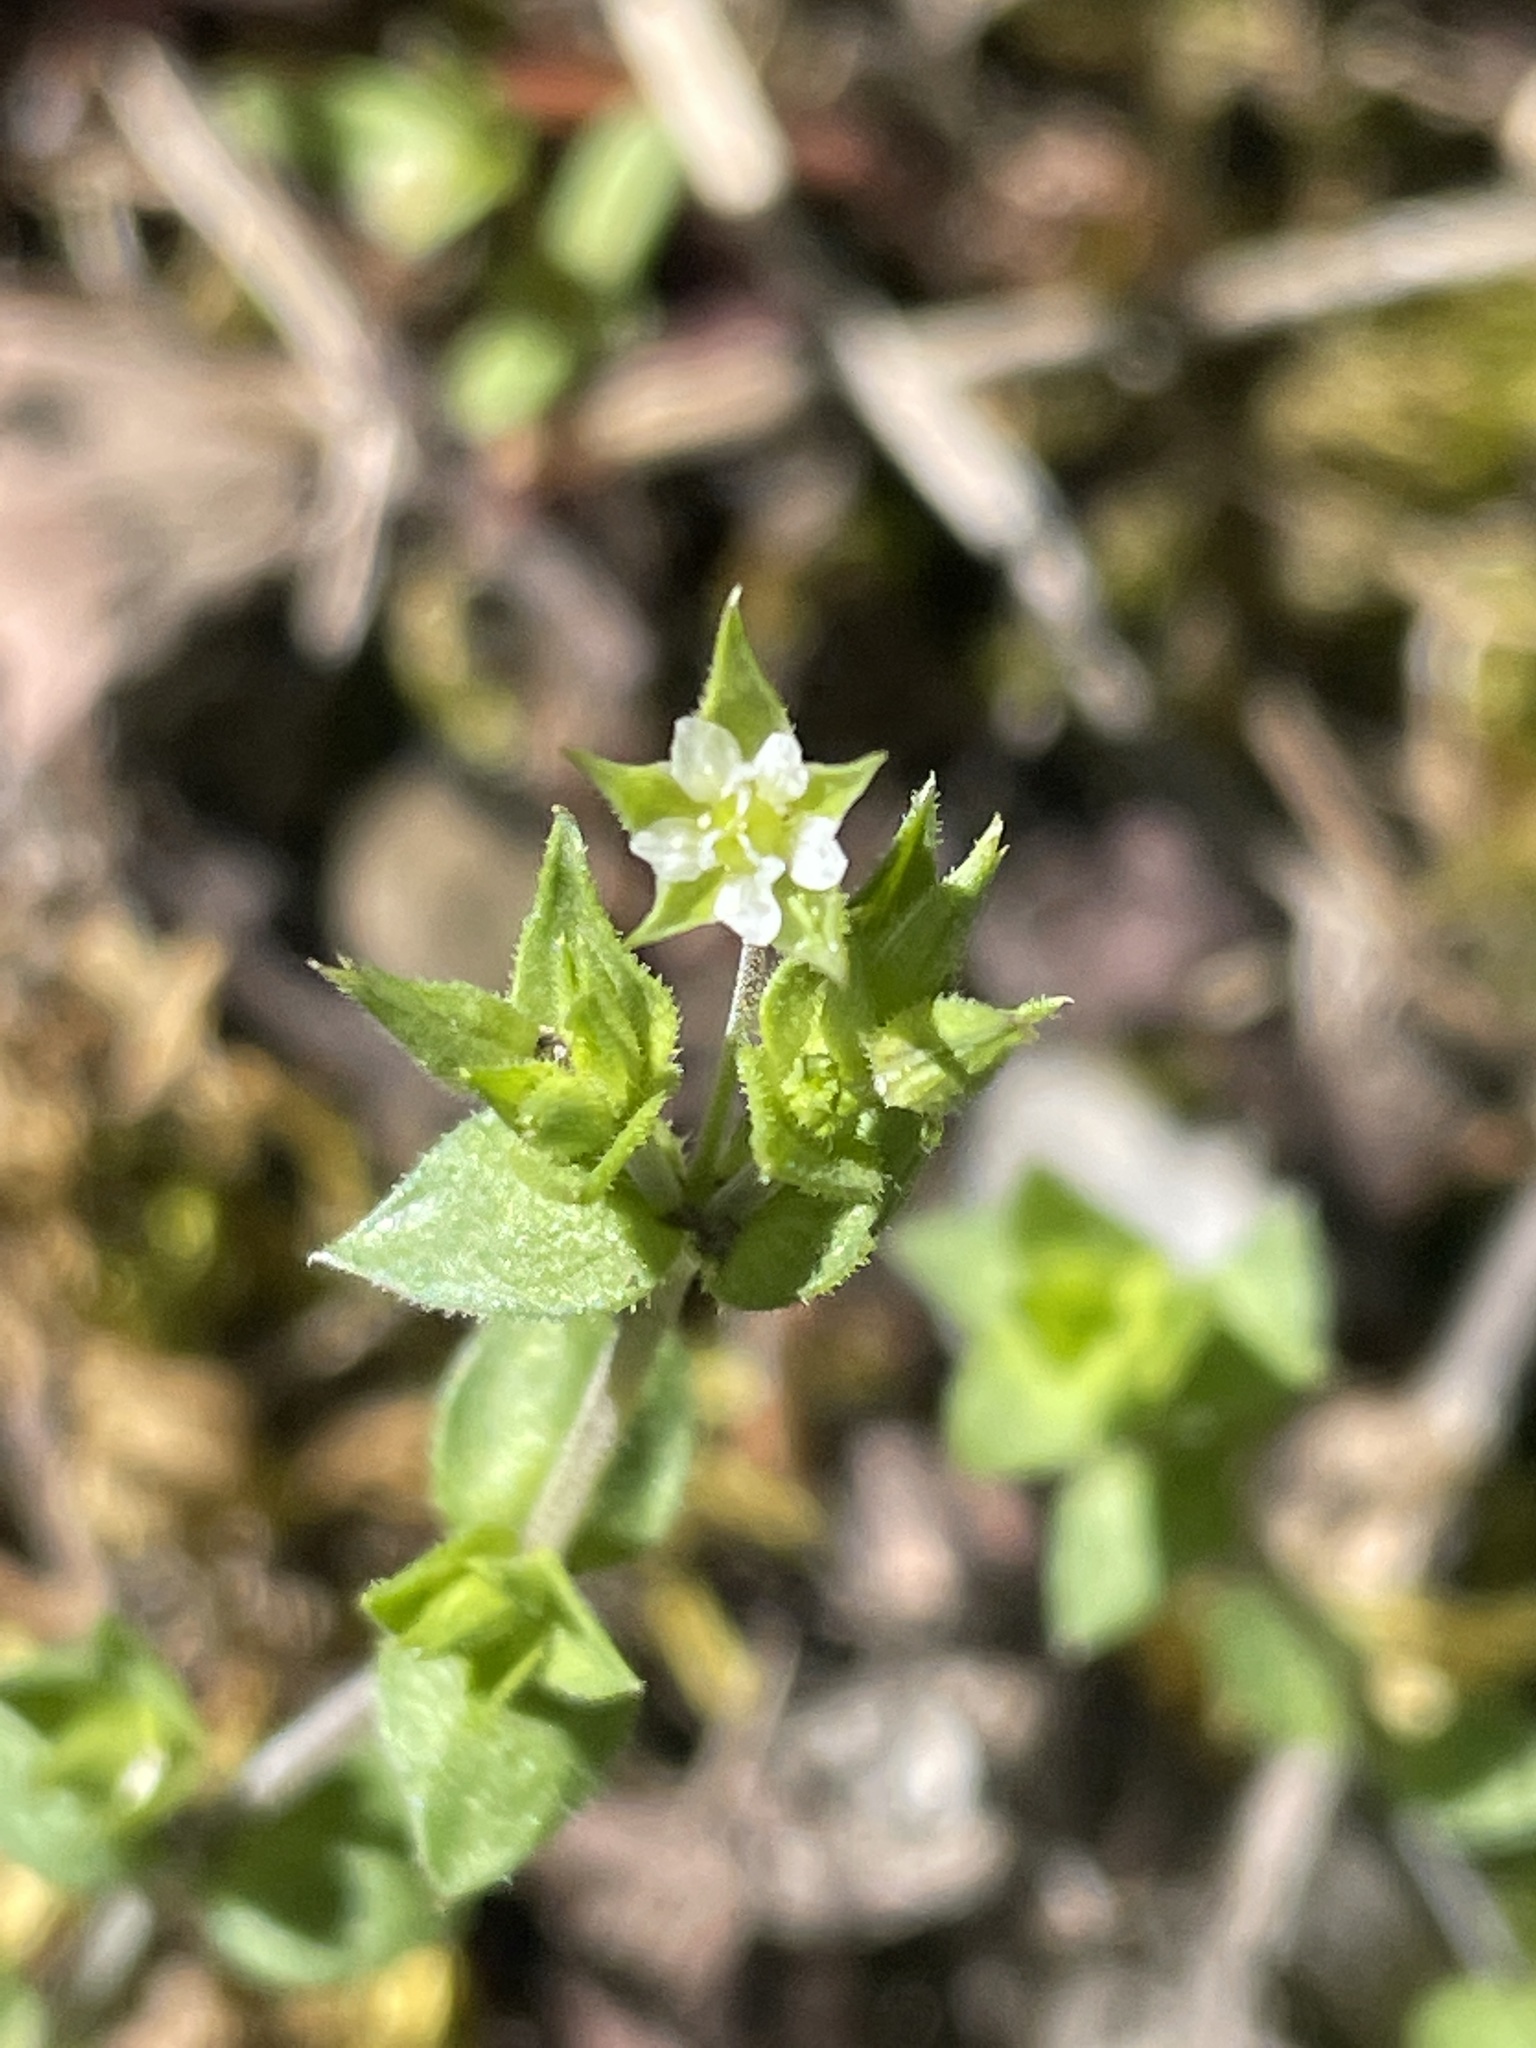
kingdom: Plantae
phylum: Tracheophyta
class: Magnoliopsida
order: Caryophyllales
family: Caryophyllaceae
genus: Arenaria
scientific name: Arenaria serpyllifolia
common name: Thyme-leaved sandwort
